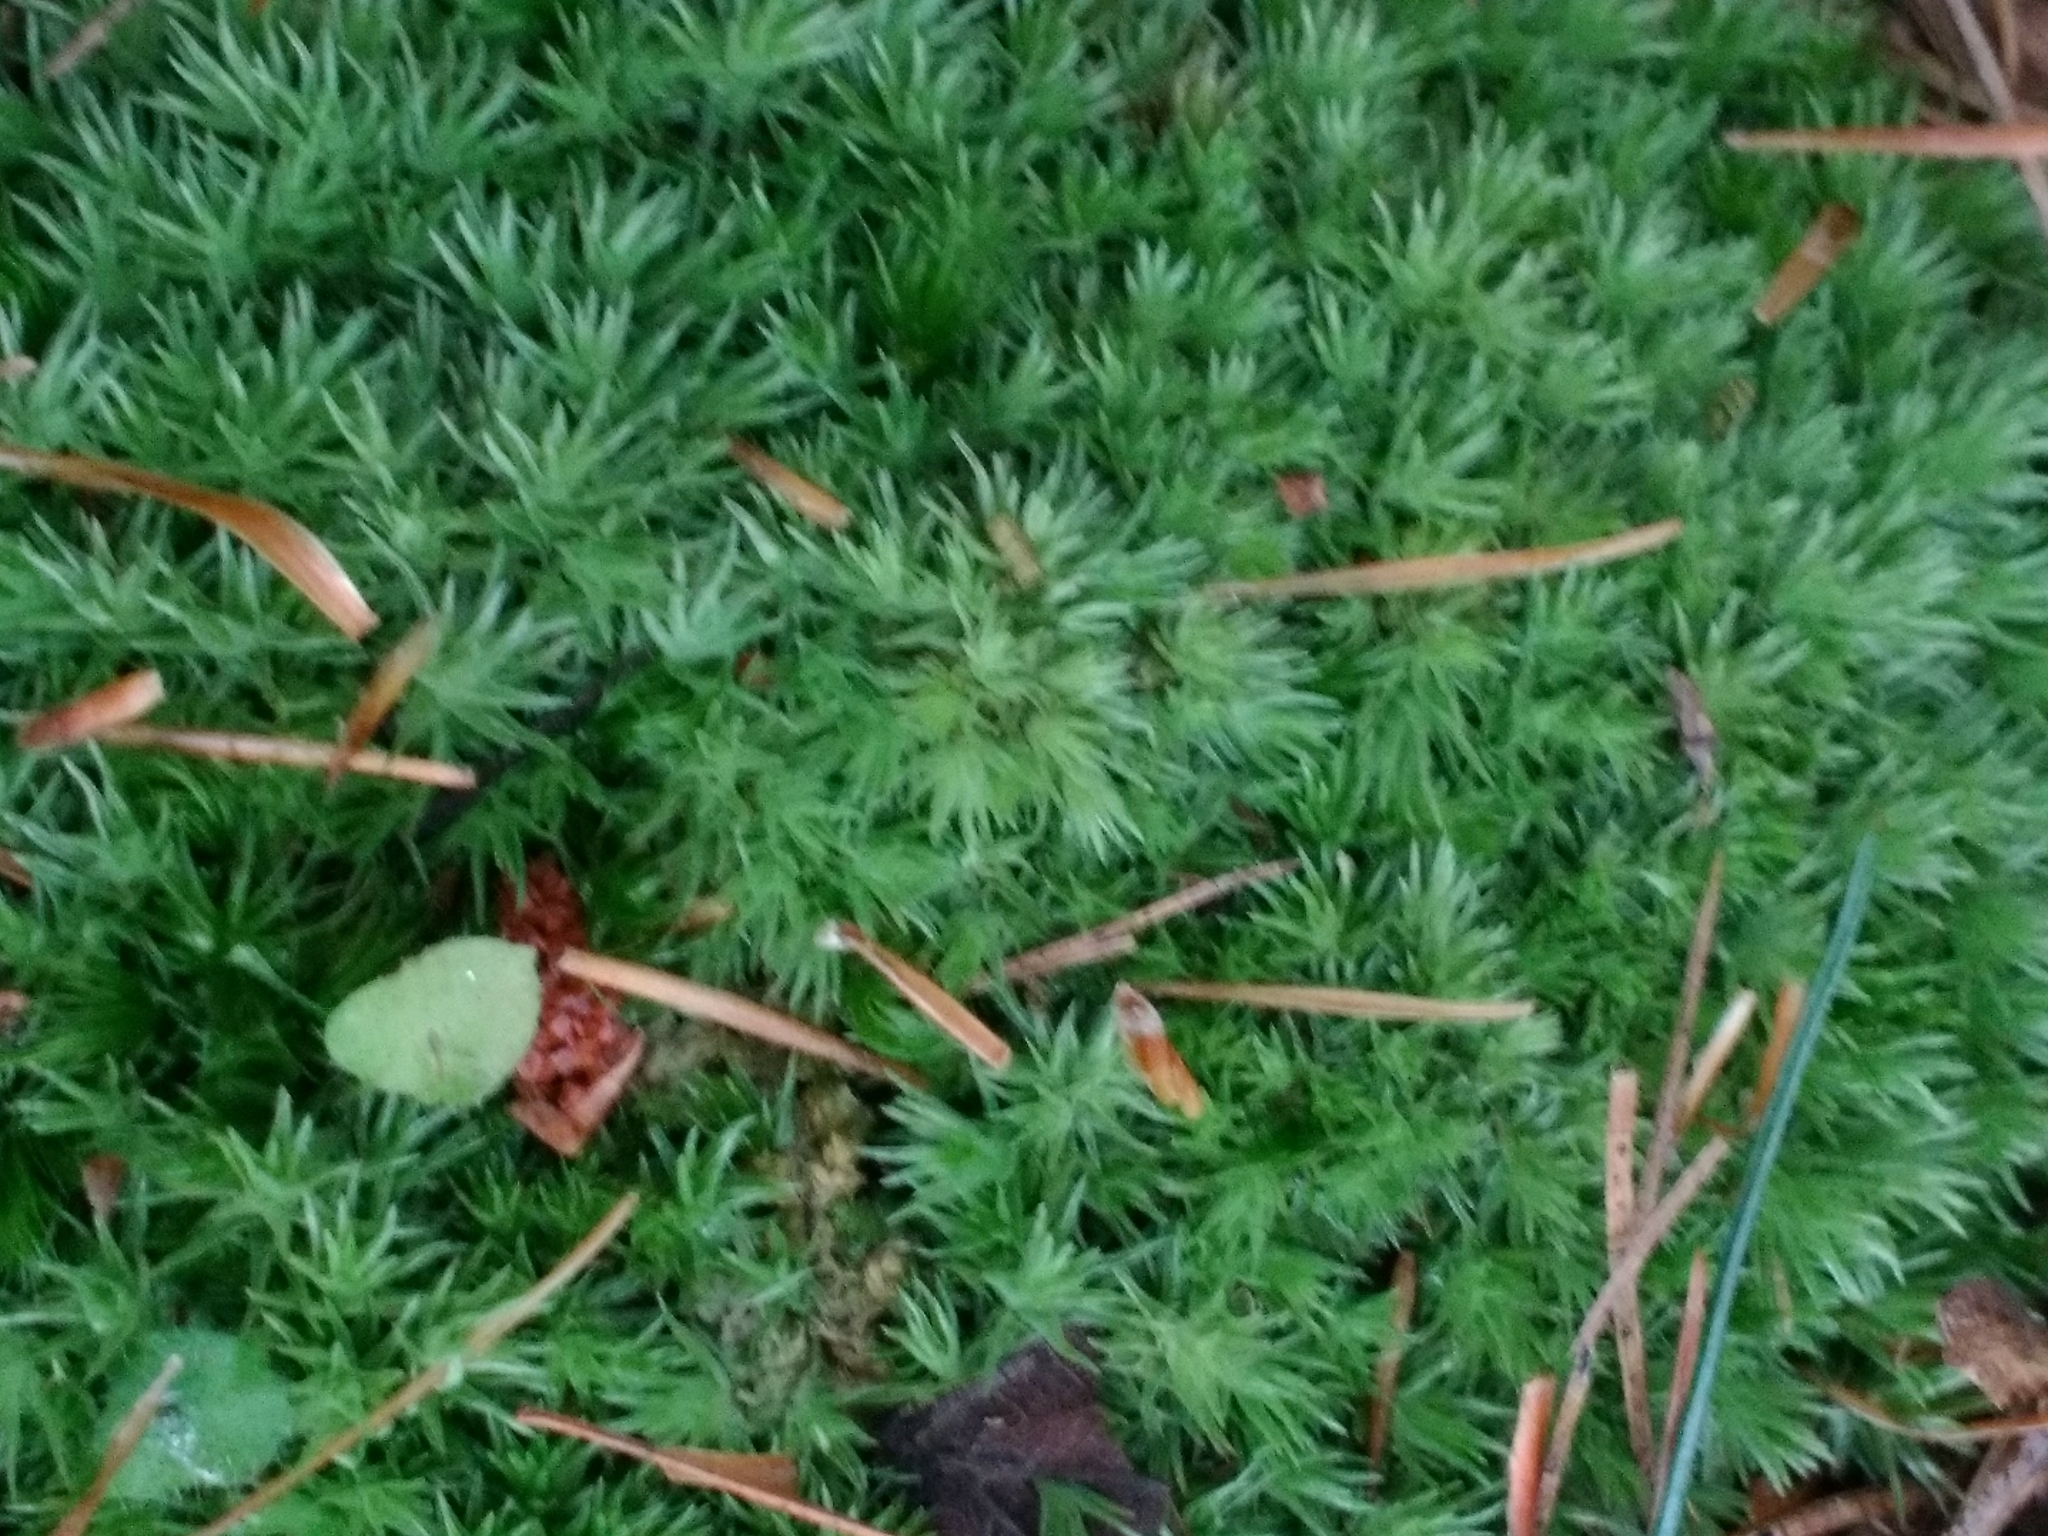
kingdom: Plantae
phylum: Bryophyta
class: Bryopsida
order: Dicranales
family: Leucobryaceae
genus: Leucobryum
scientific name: Leucobryum glaucum
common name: Large white-moss
